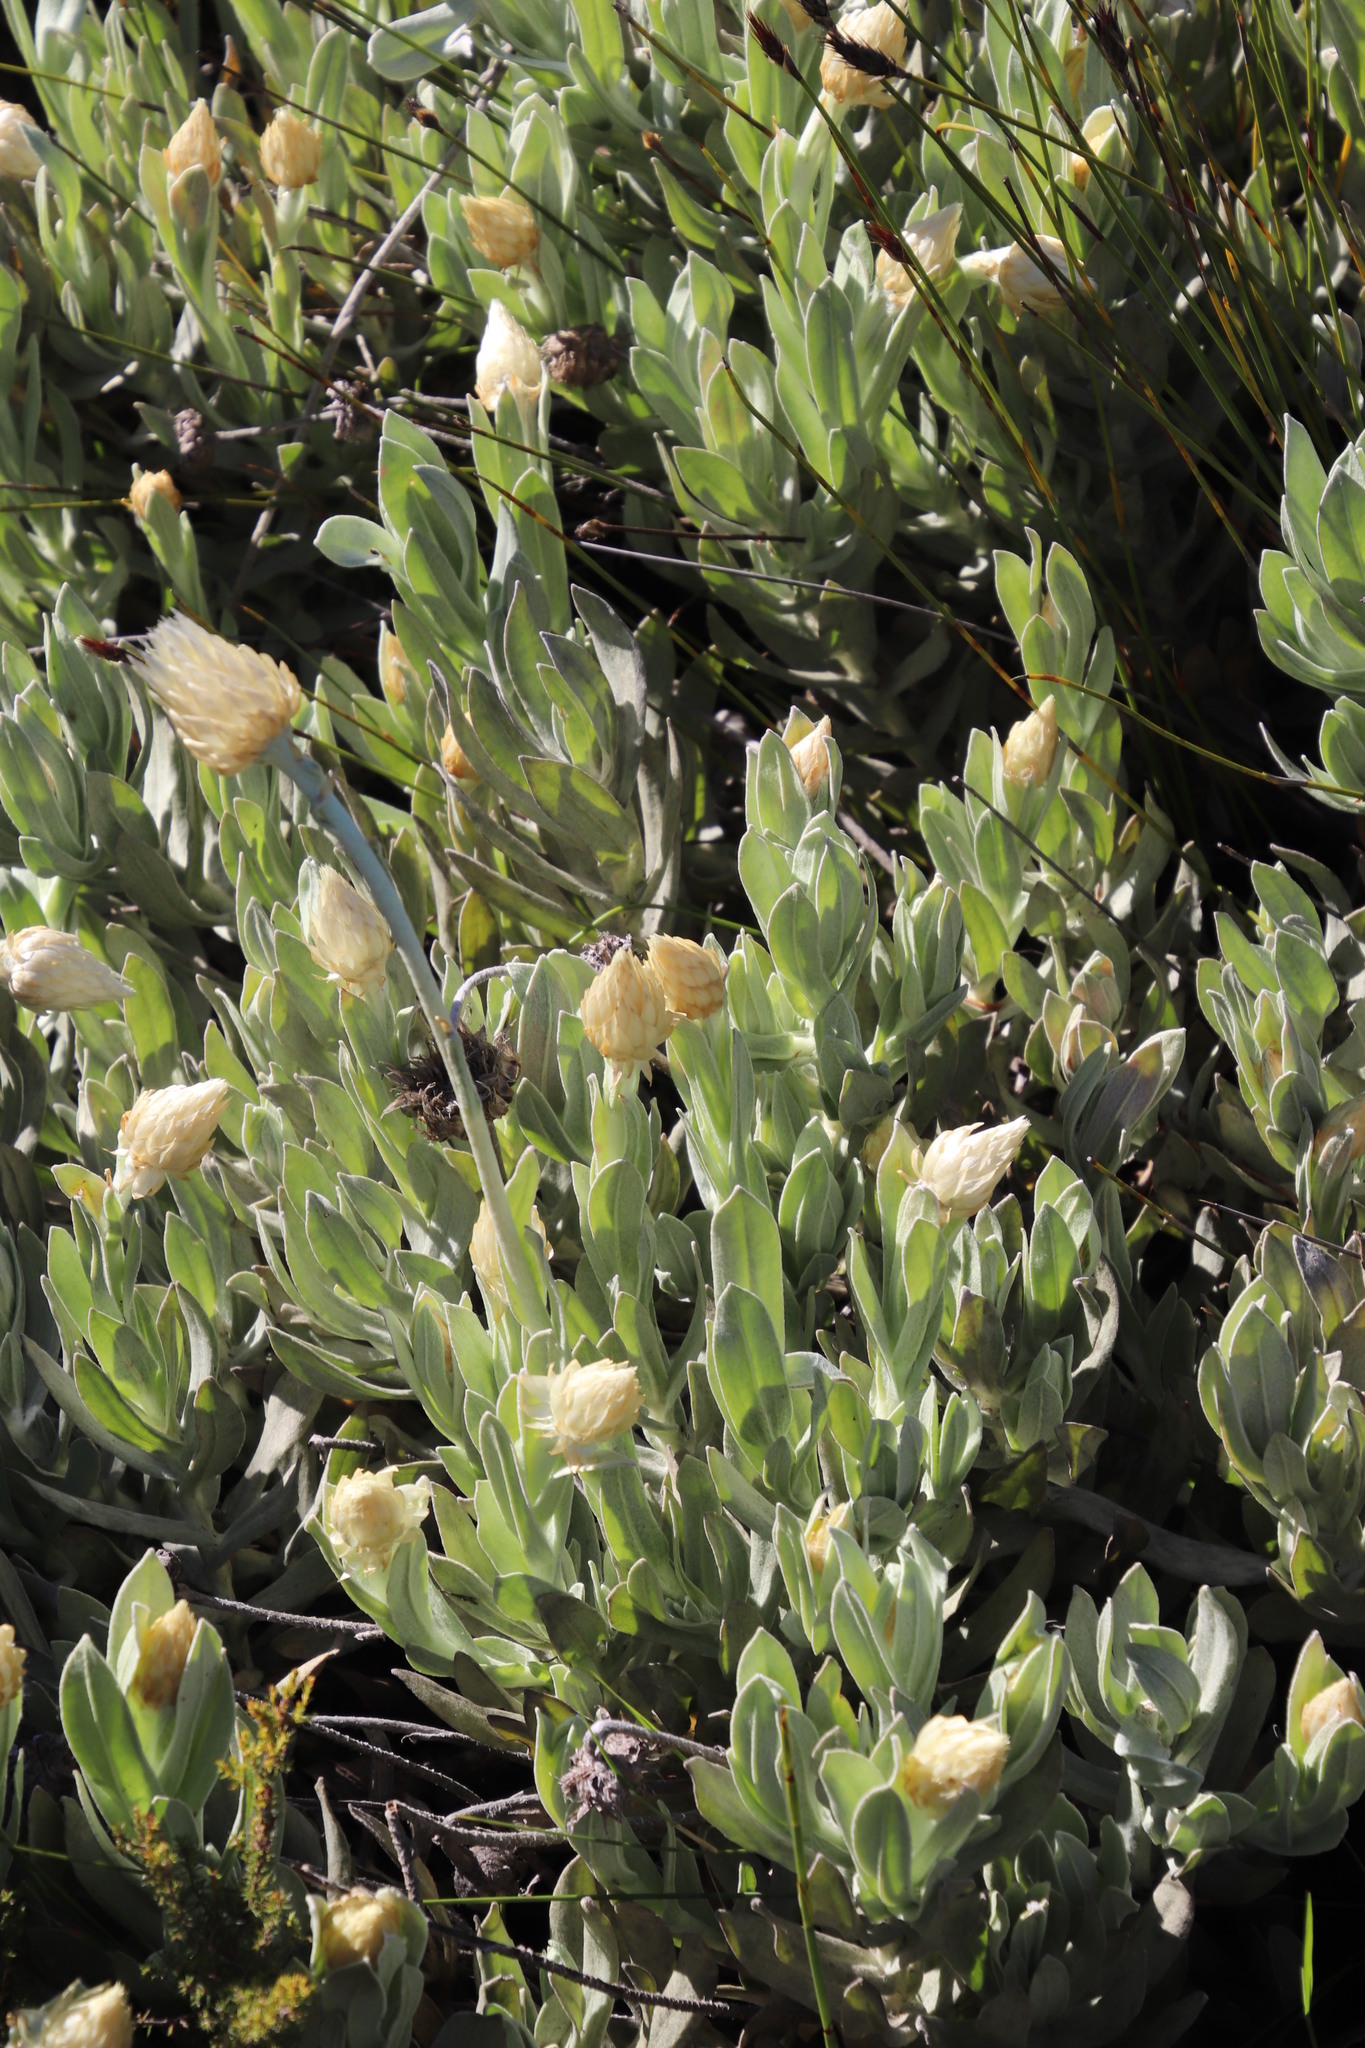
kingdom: Plantae
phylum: Tracheophyta
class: Magnoliopsida
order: Asterales
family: Asteraceae
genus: Syncarpha
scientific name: Syncarpha speciosissima
